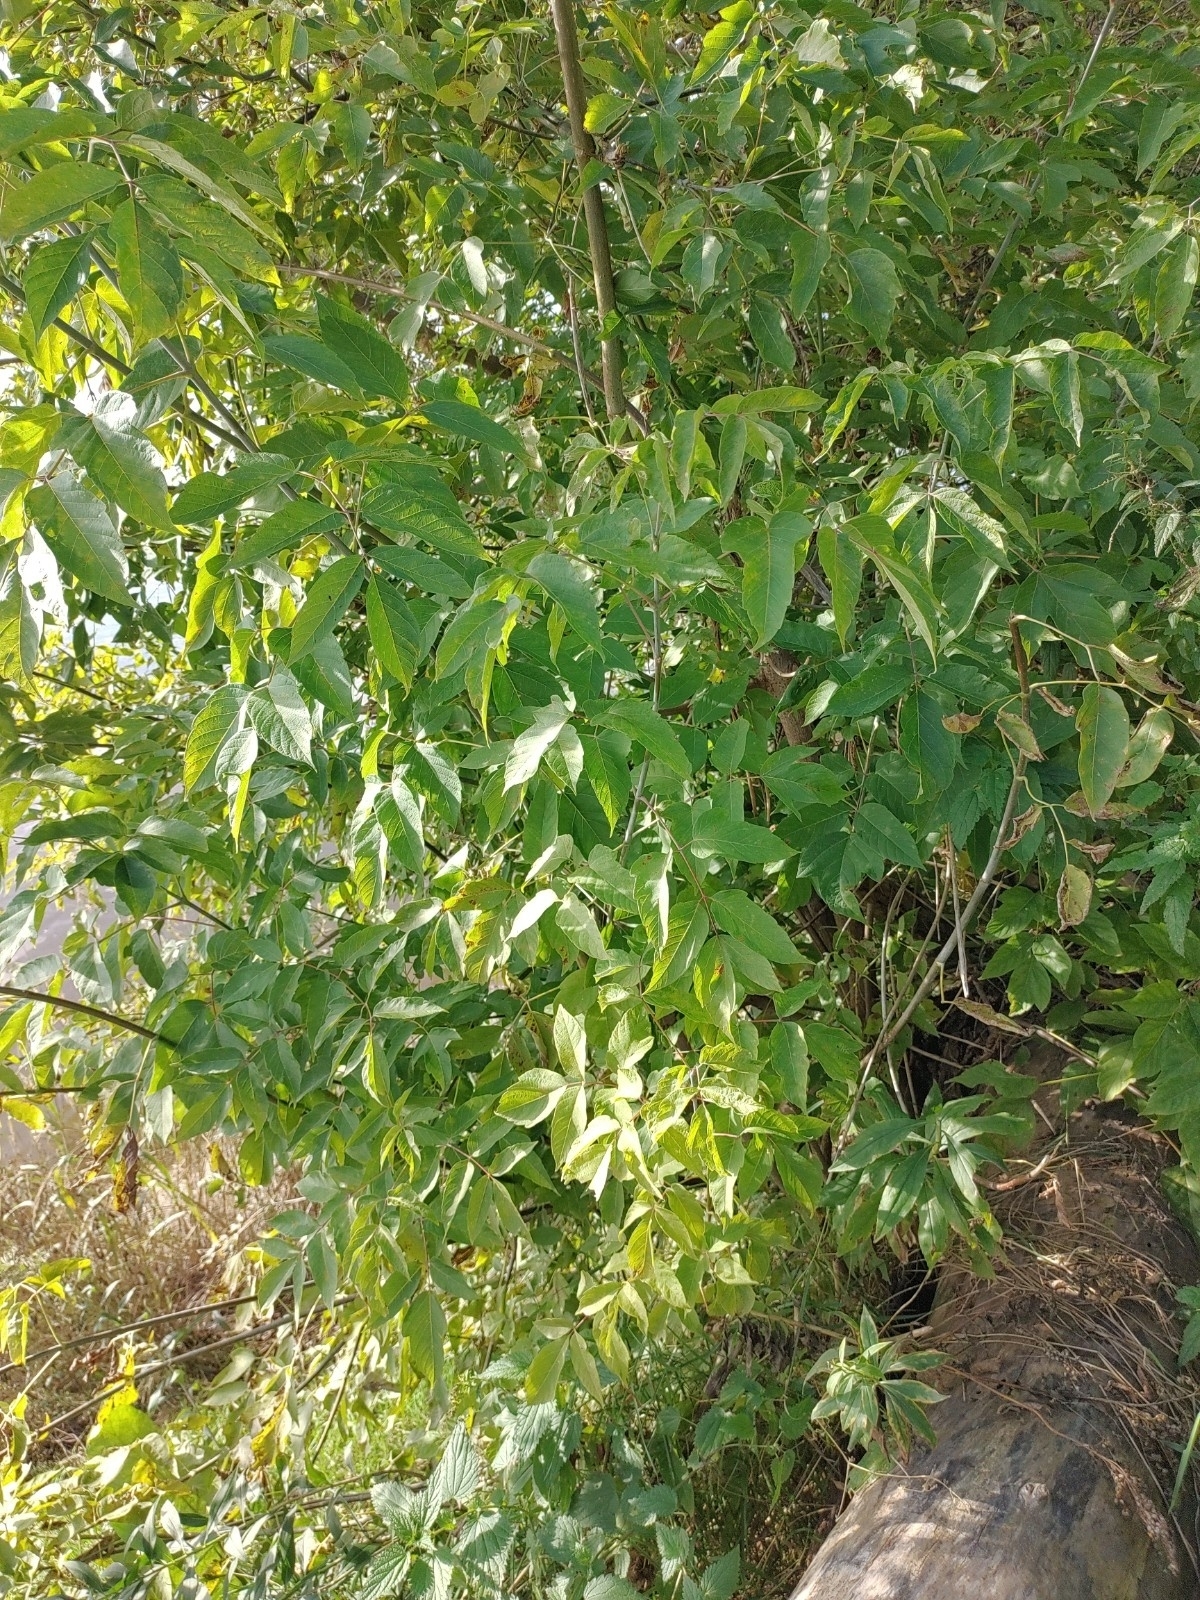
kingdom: Plantae
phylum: Tracheophyta
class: Magnoliopsida
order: Sapindales
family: Sapindaceae
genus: Acer
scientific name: Acer negundo
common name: Ashleaf maple
